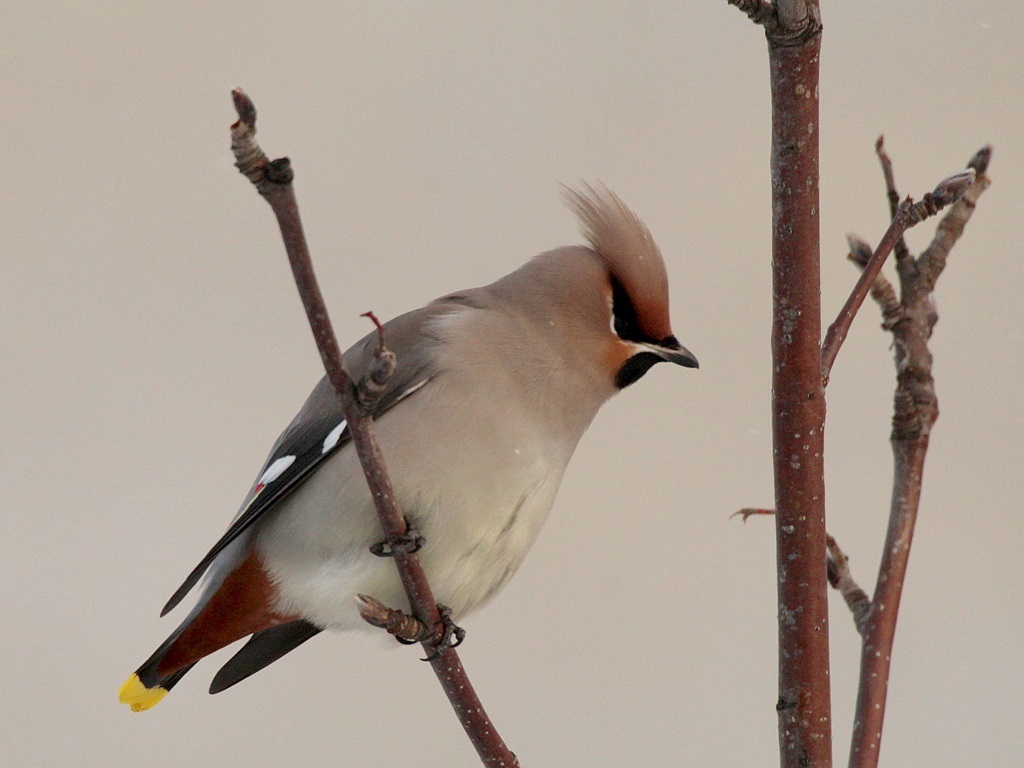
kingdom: Animalia
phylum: Chordata
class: Aves
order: Passeriformes
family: Bombycillidae
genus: Bombycilla
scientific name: Bombycilla garrulus
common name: Bohemian waxwing
